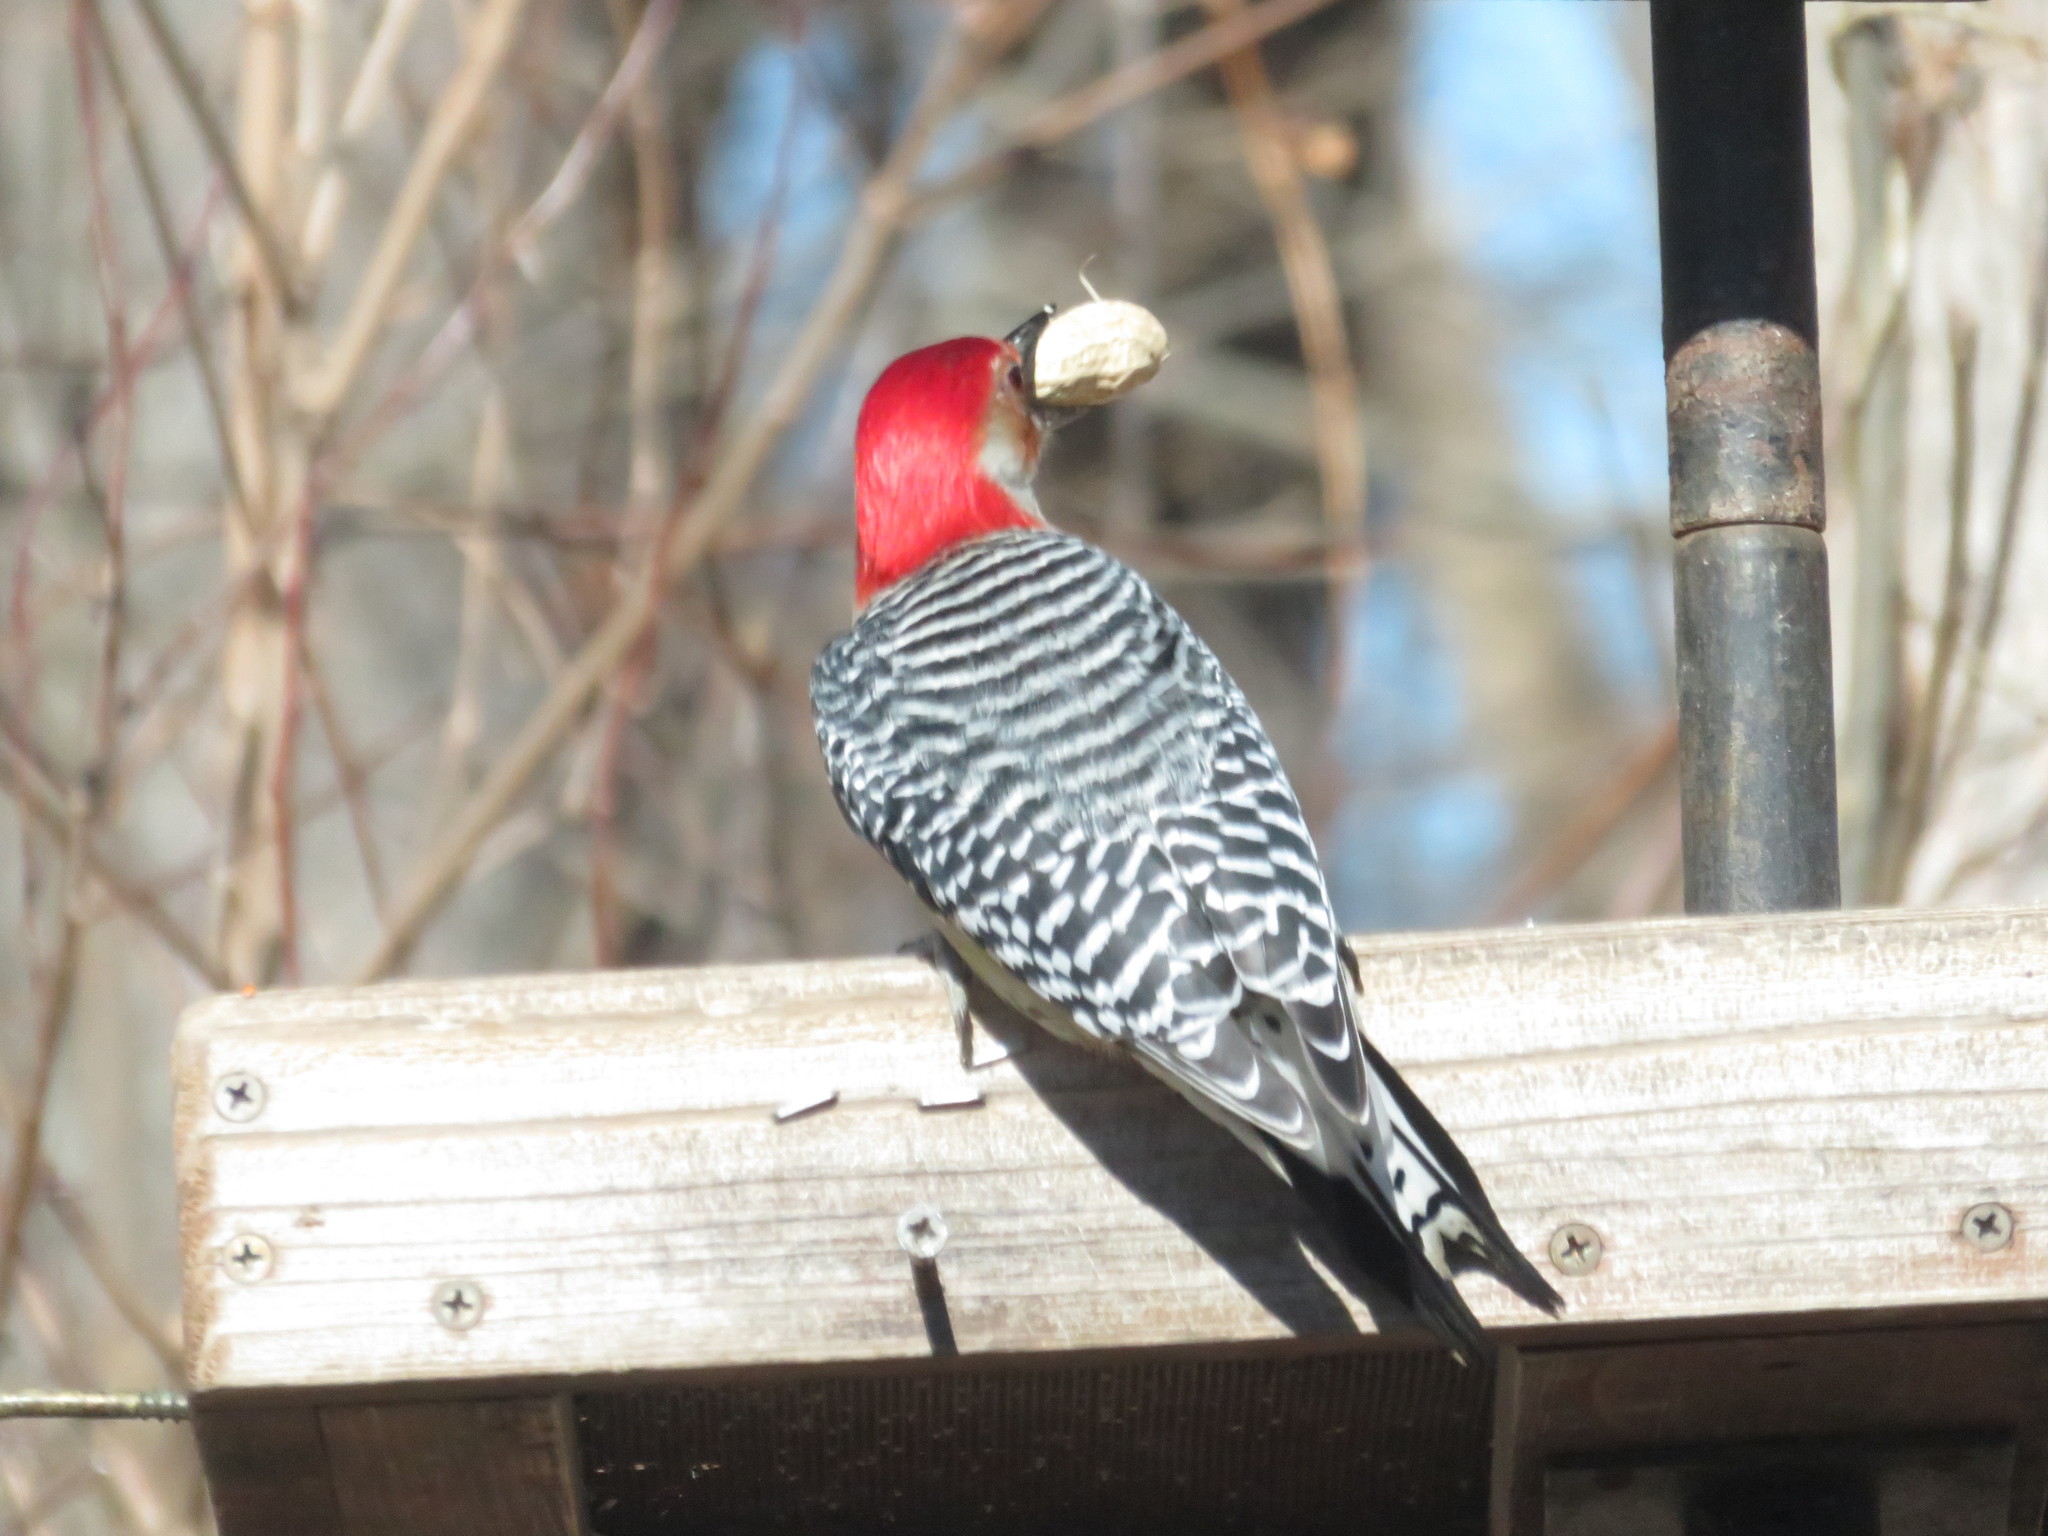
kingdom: Animalia
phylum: Chordata
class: Aves
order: Piciformes
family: Picidae
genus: Melanerpes
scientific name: Melanerpes carolinus
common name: Red-bellied woodpecker
